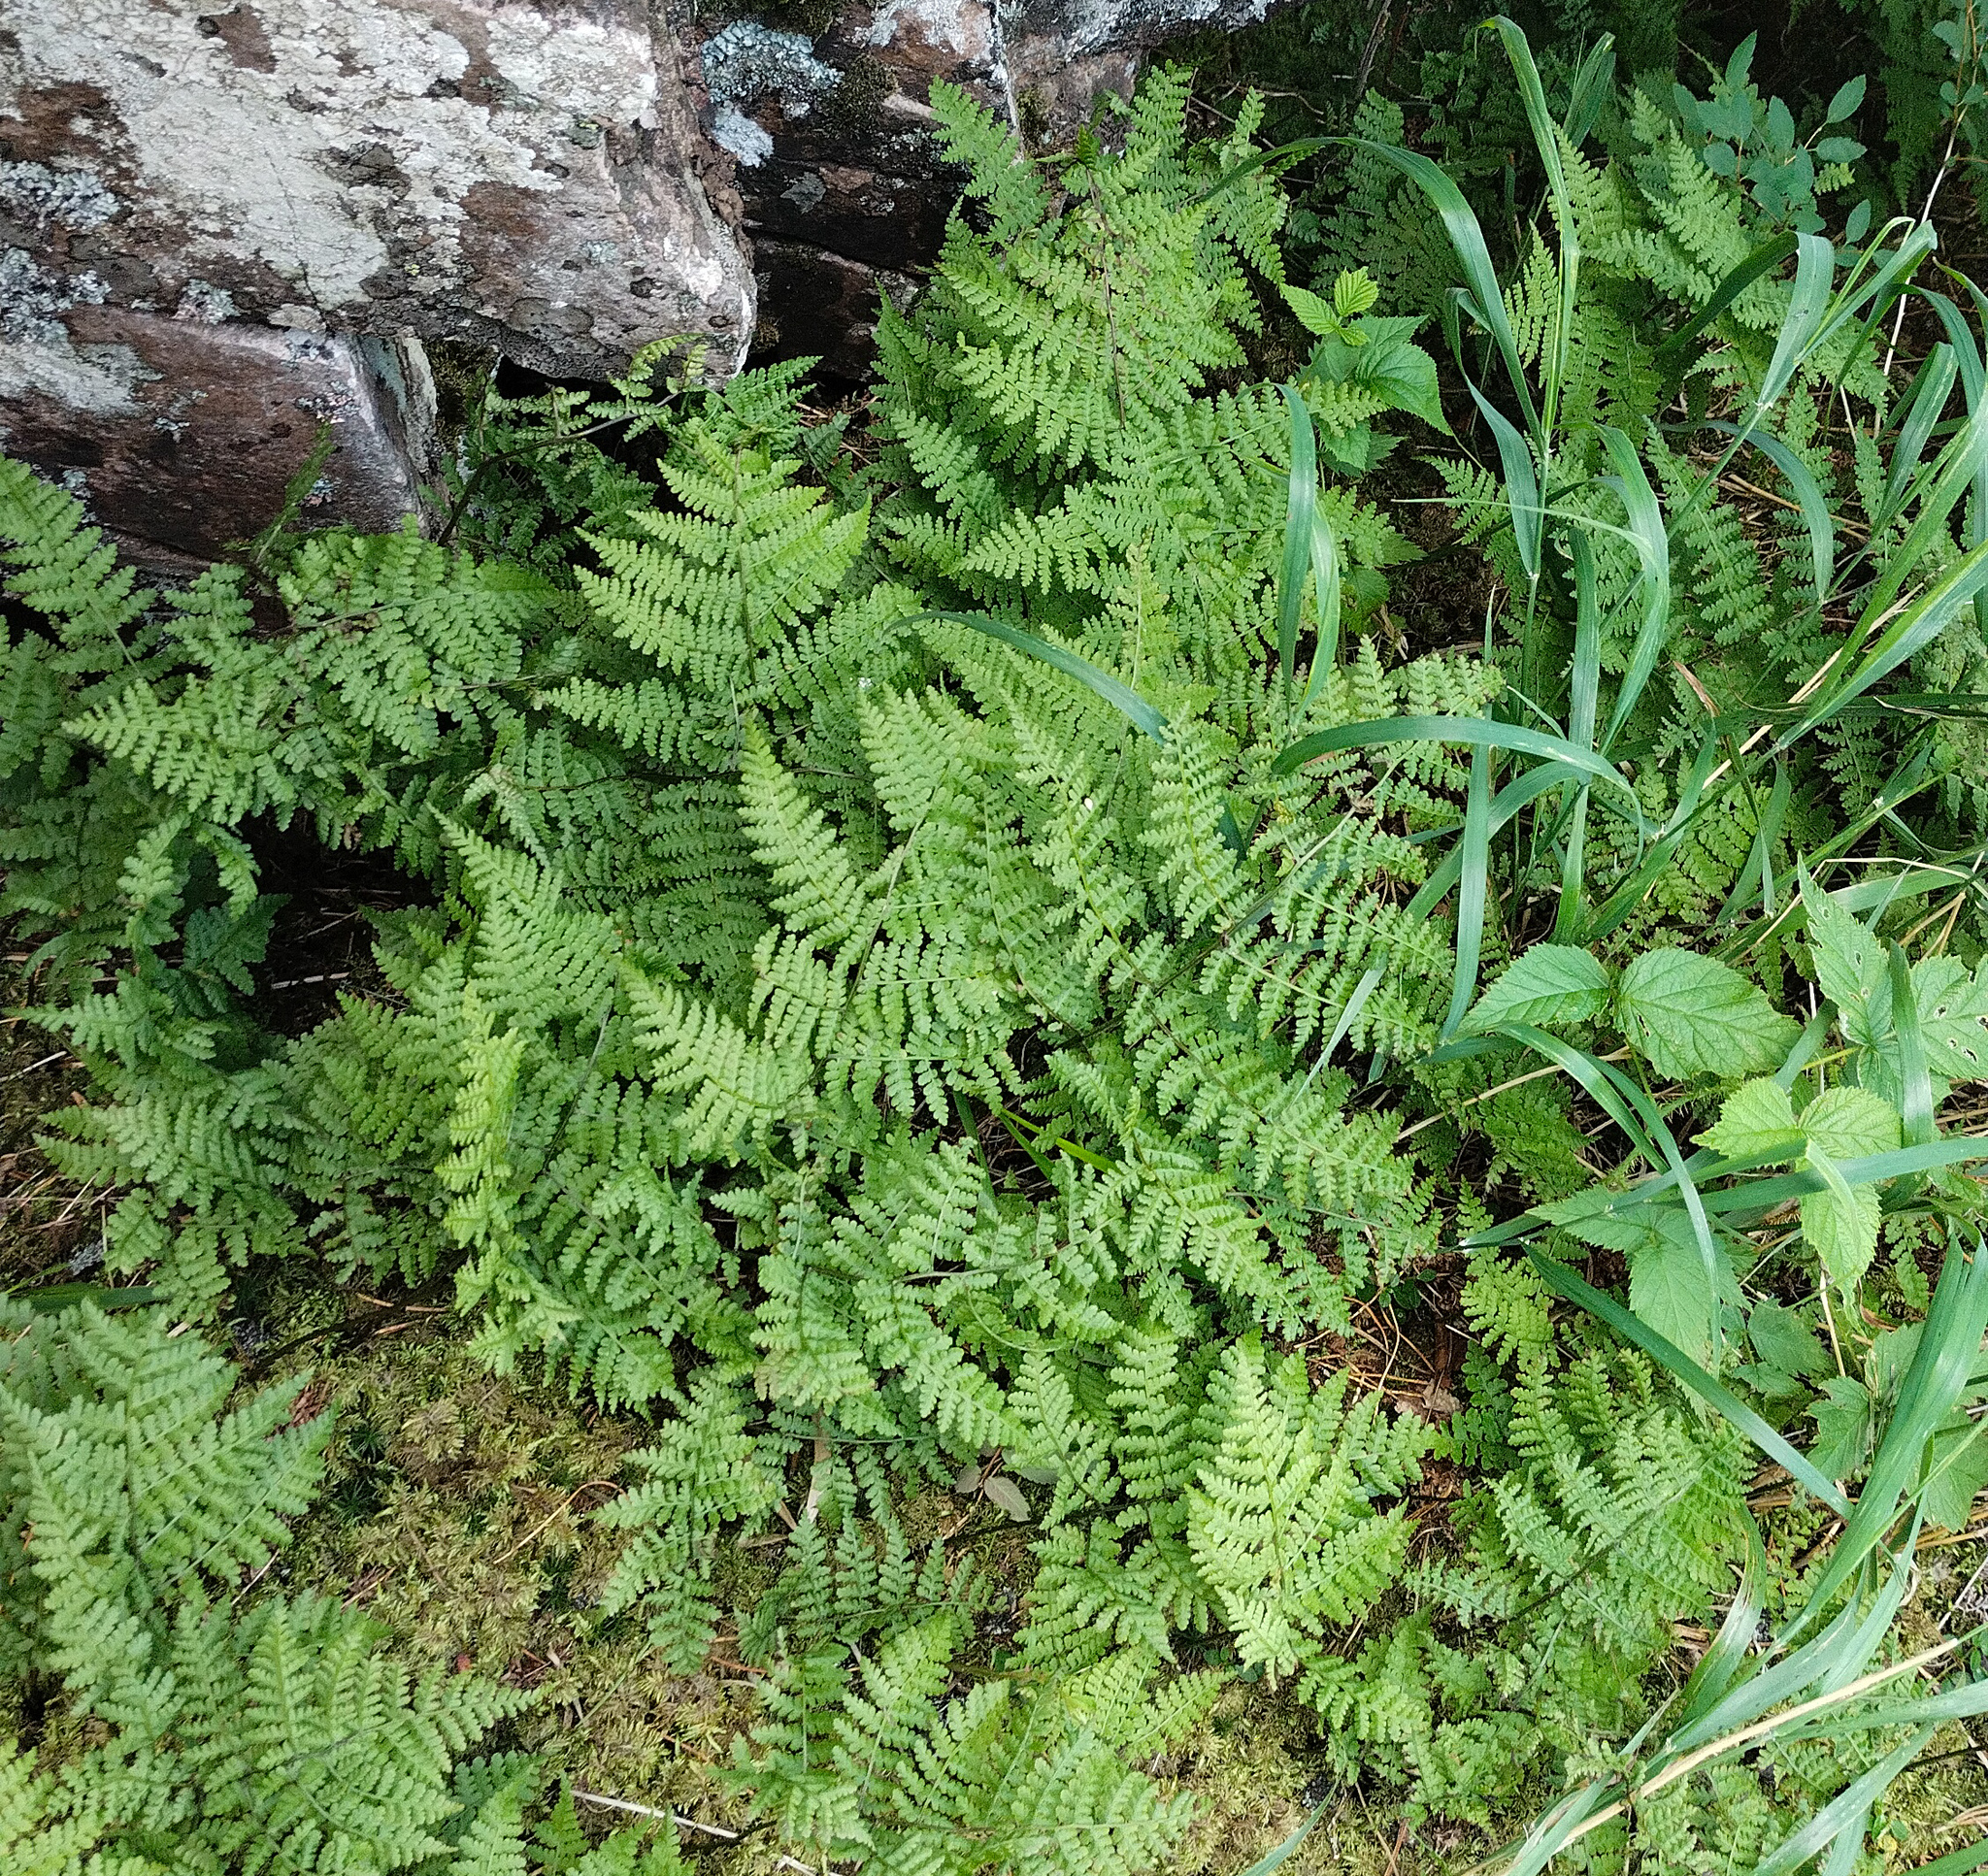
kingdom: Plantae
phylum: Tracheophyta
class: Polypodiopsida
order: Polypodiales
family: Athyriaceae
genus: Diplazium
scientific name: Diplazium sibiricum
